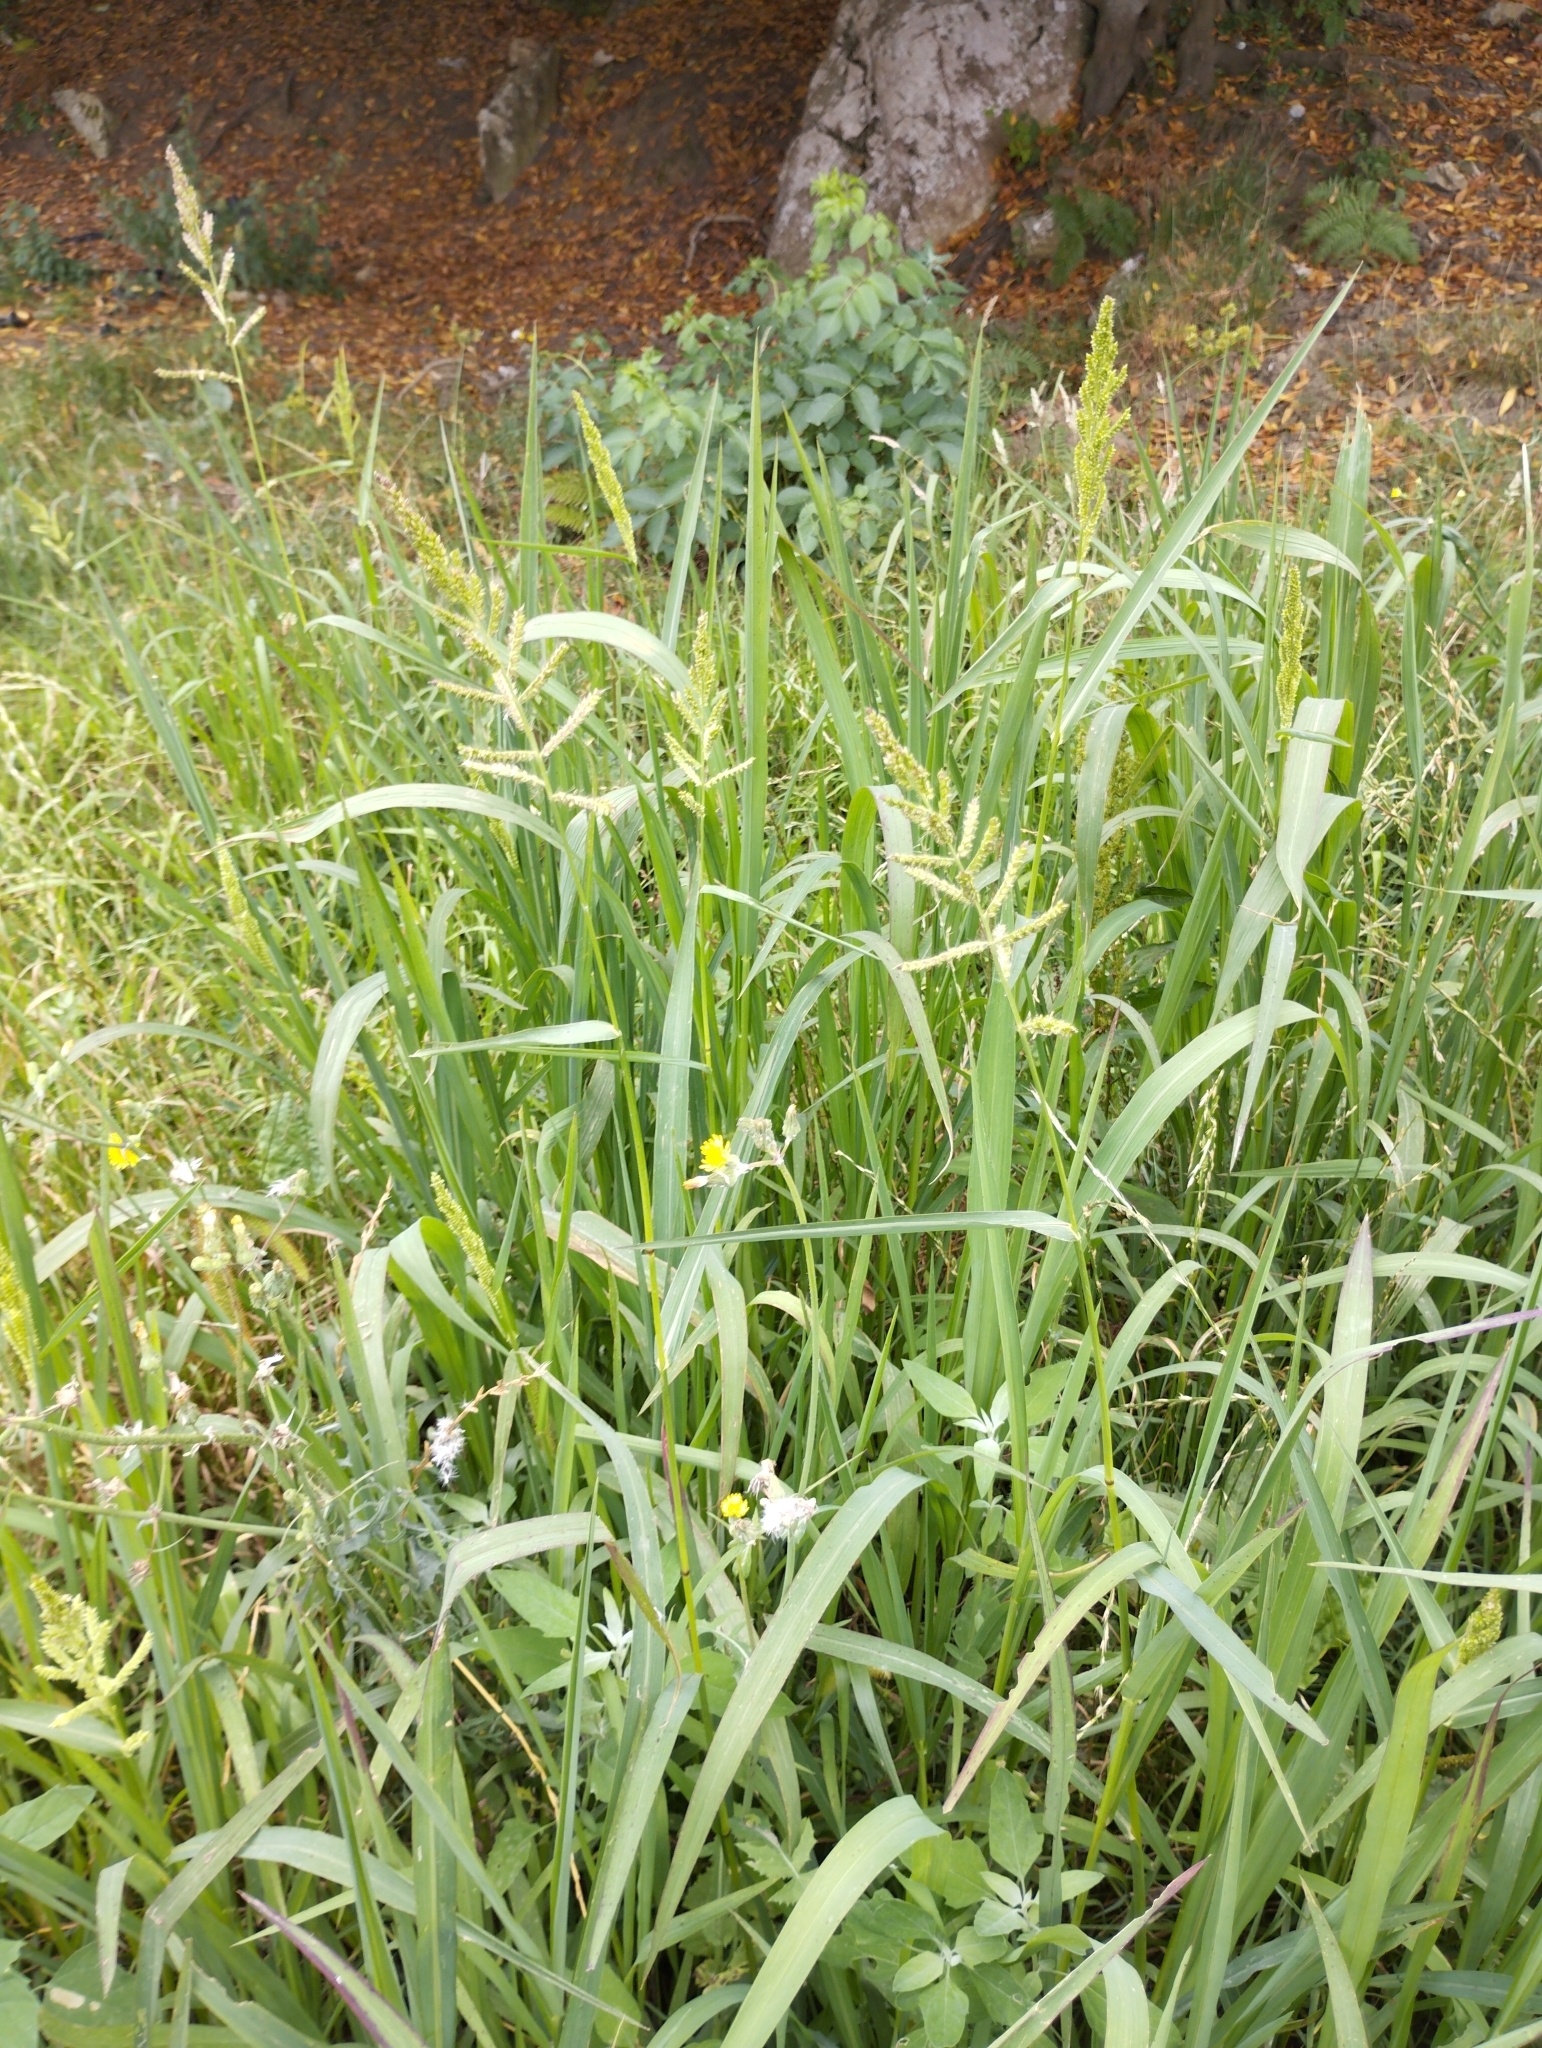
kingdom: Plantae
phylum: Tracheophyta
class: Liliopsida
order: Poales
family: Poaceae
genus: Echinochloa
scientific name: Echinochloa crus-galli
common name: Cockspur
